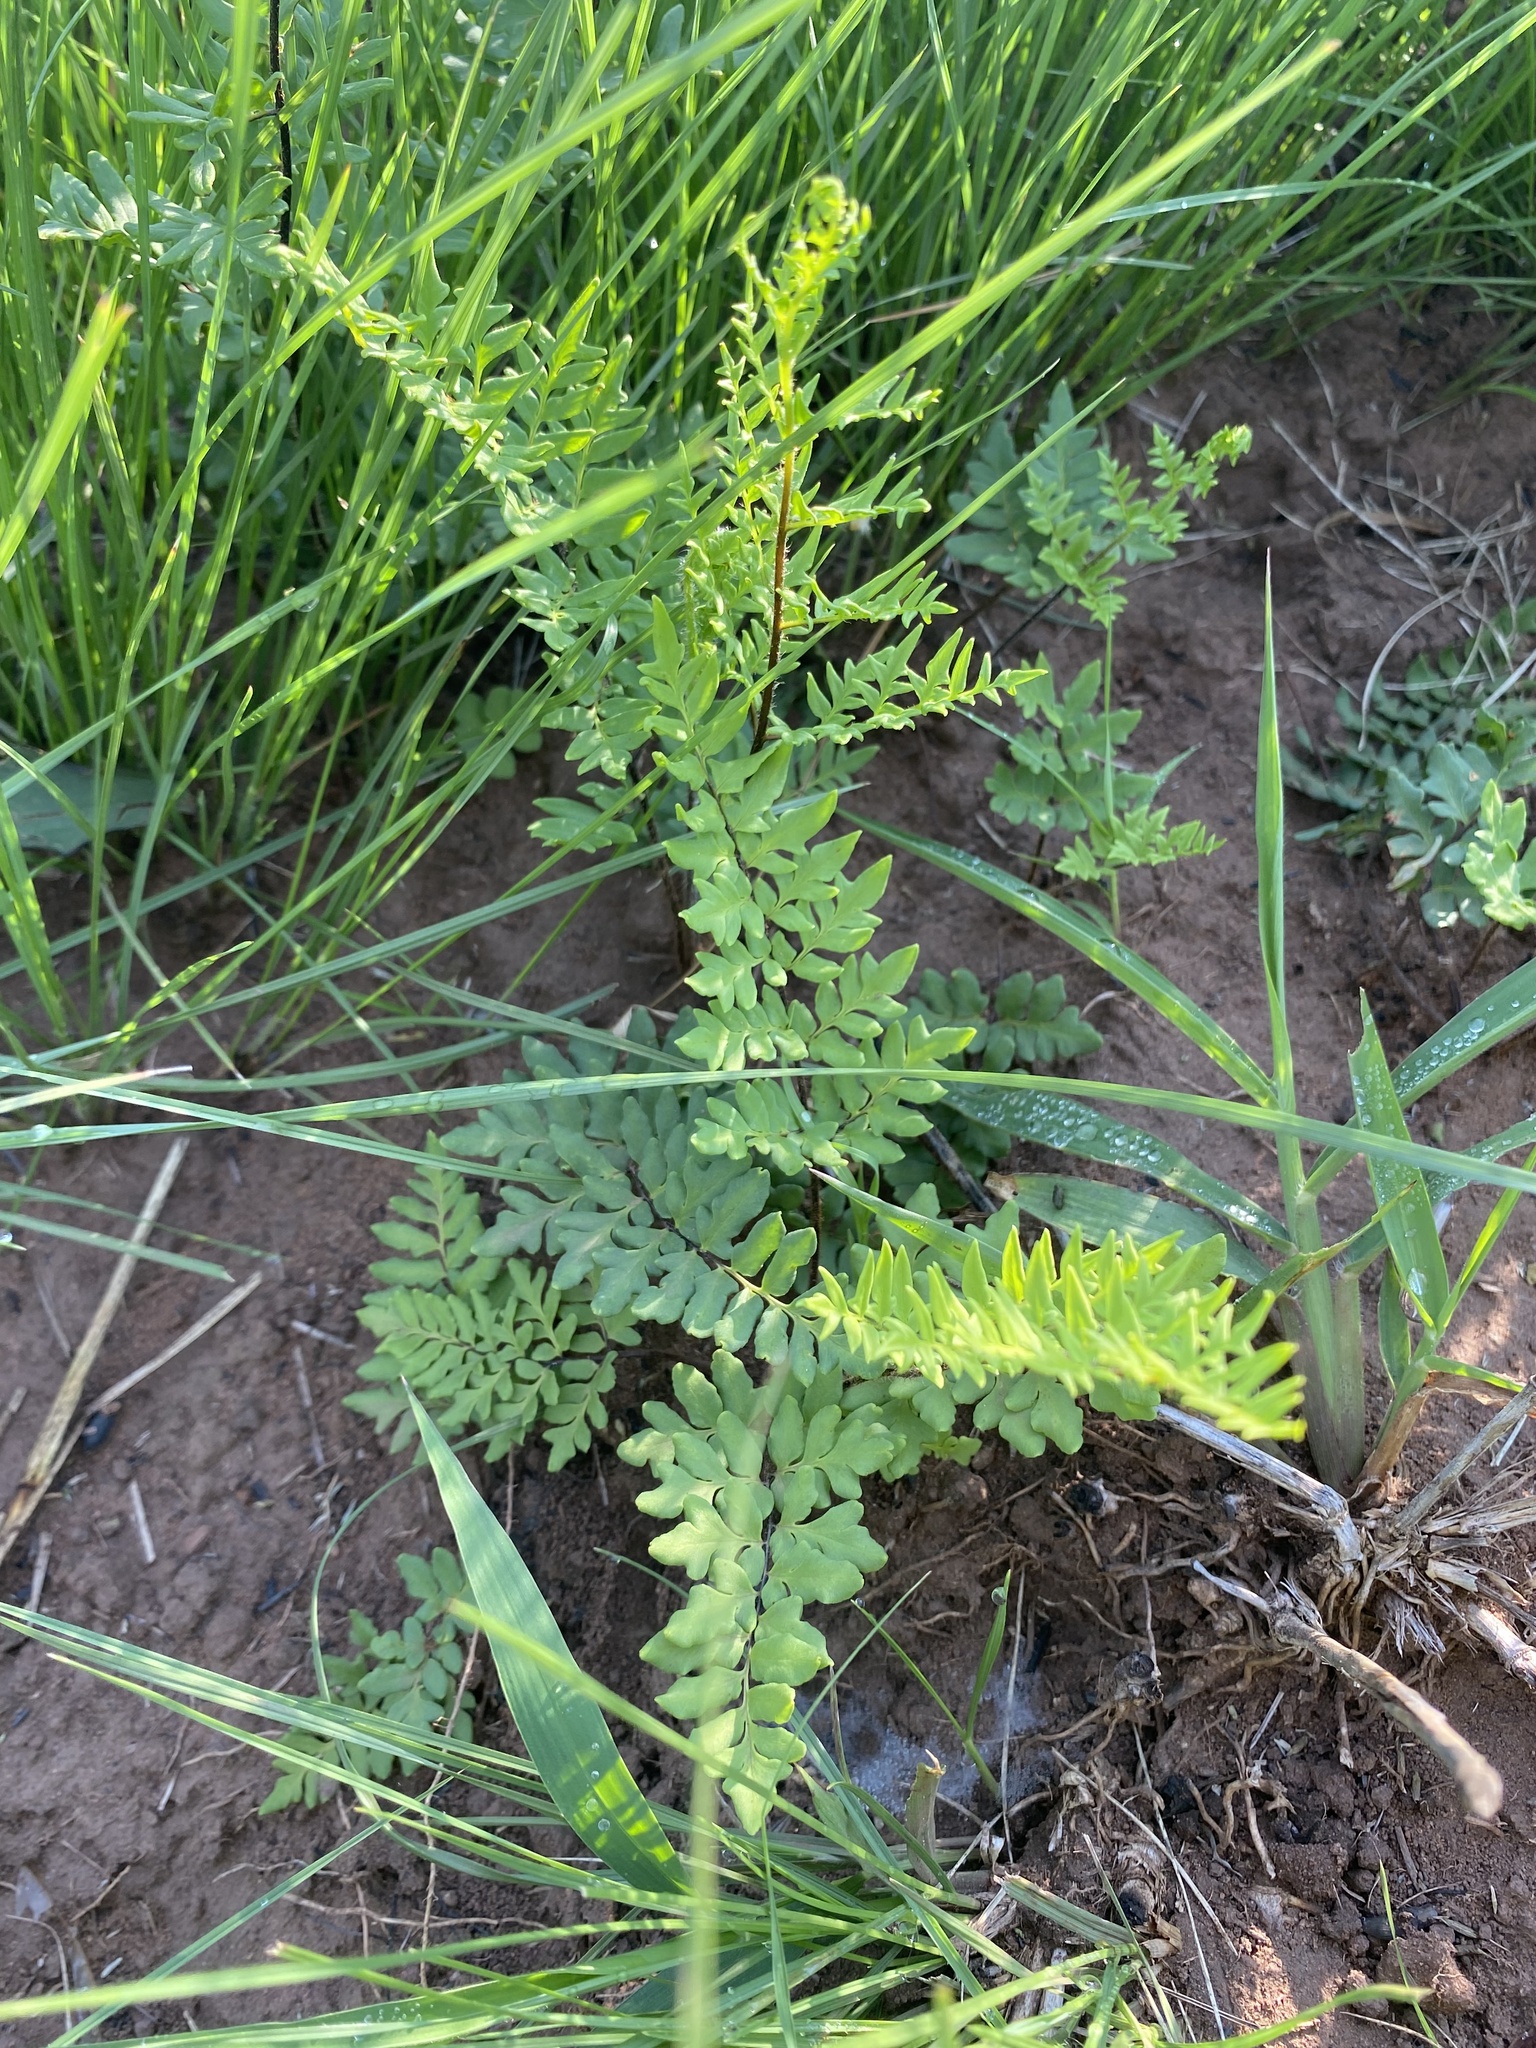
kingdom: Plantae
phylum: Tracheophyta
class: Polypodiopsida
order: Polypodiales
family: Pteridaceae
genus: Cheilanthes
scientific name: Cheilanthes viridis
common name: Green cliffbrake
